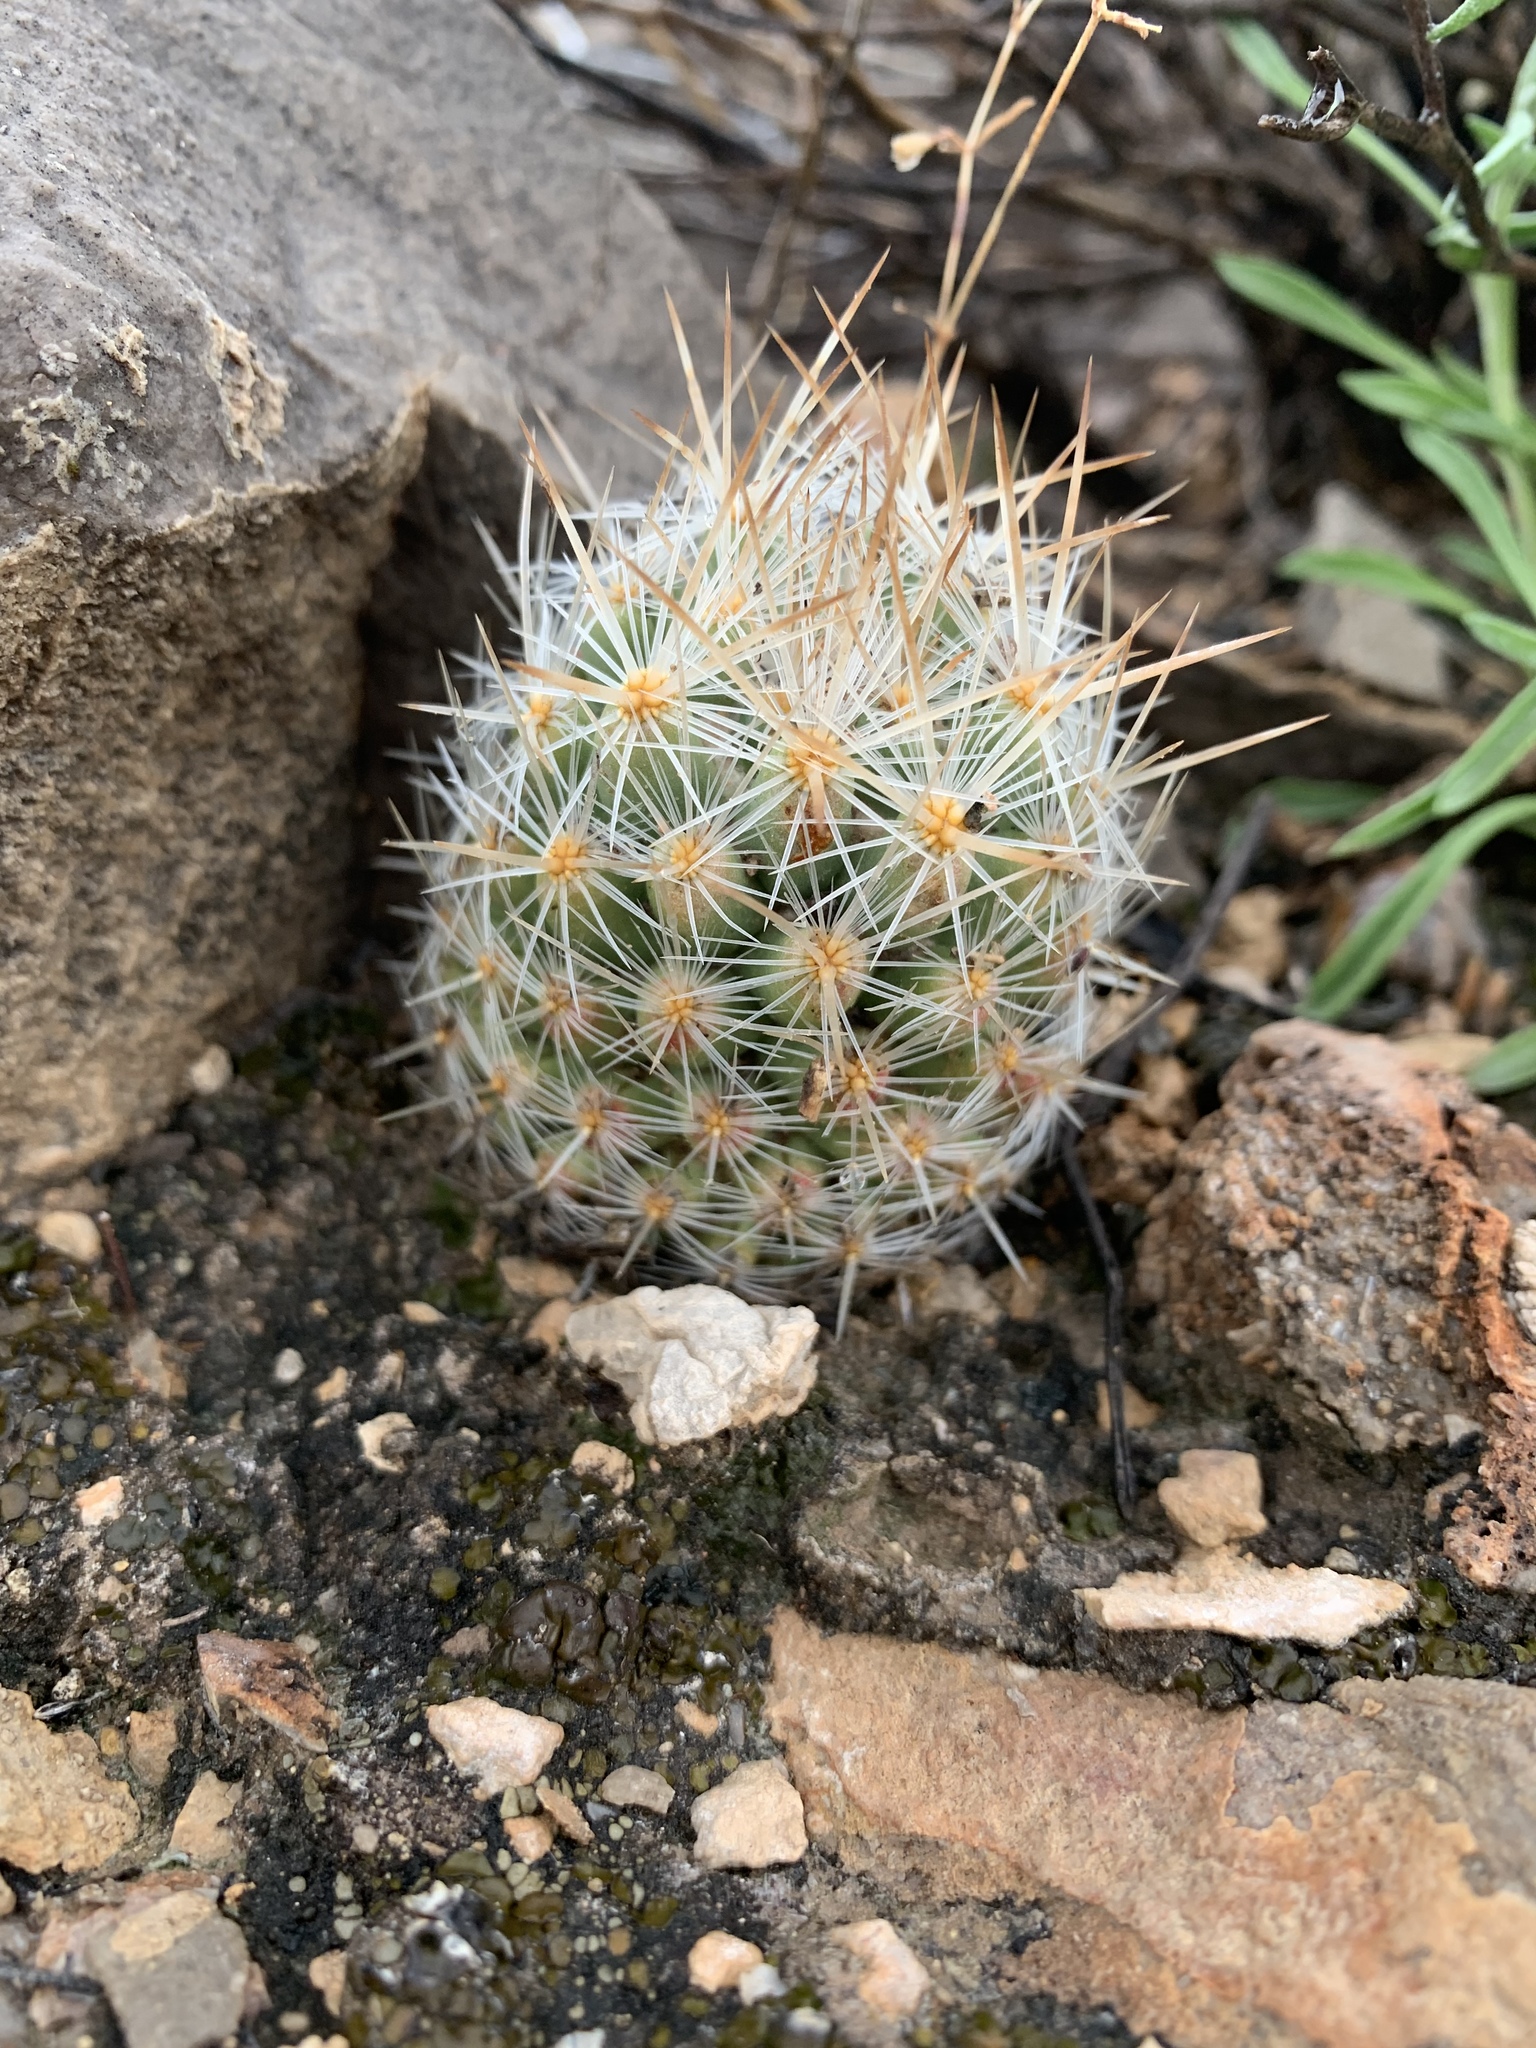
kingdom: Plantae
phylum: Tracheophyta
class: Magnoliopsida
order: Caryophyllales
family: Cactaceae
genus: Pelecyphora
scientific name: Pelecyphora tuberculosa
